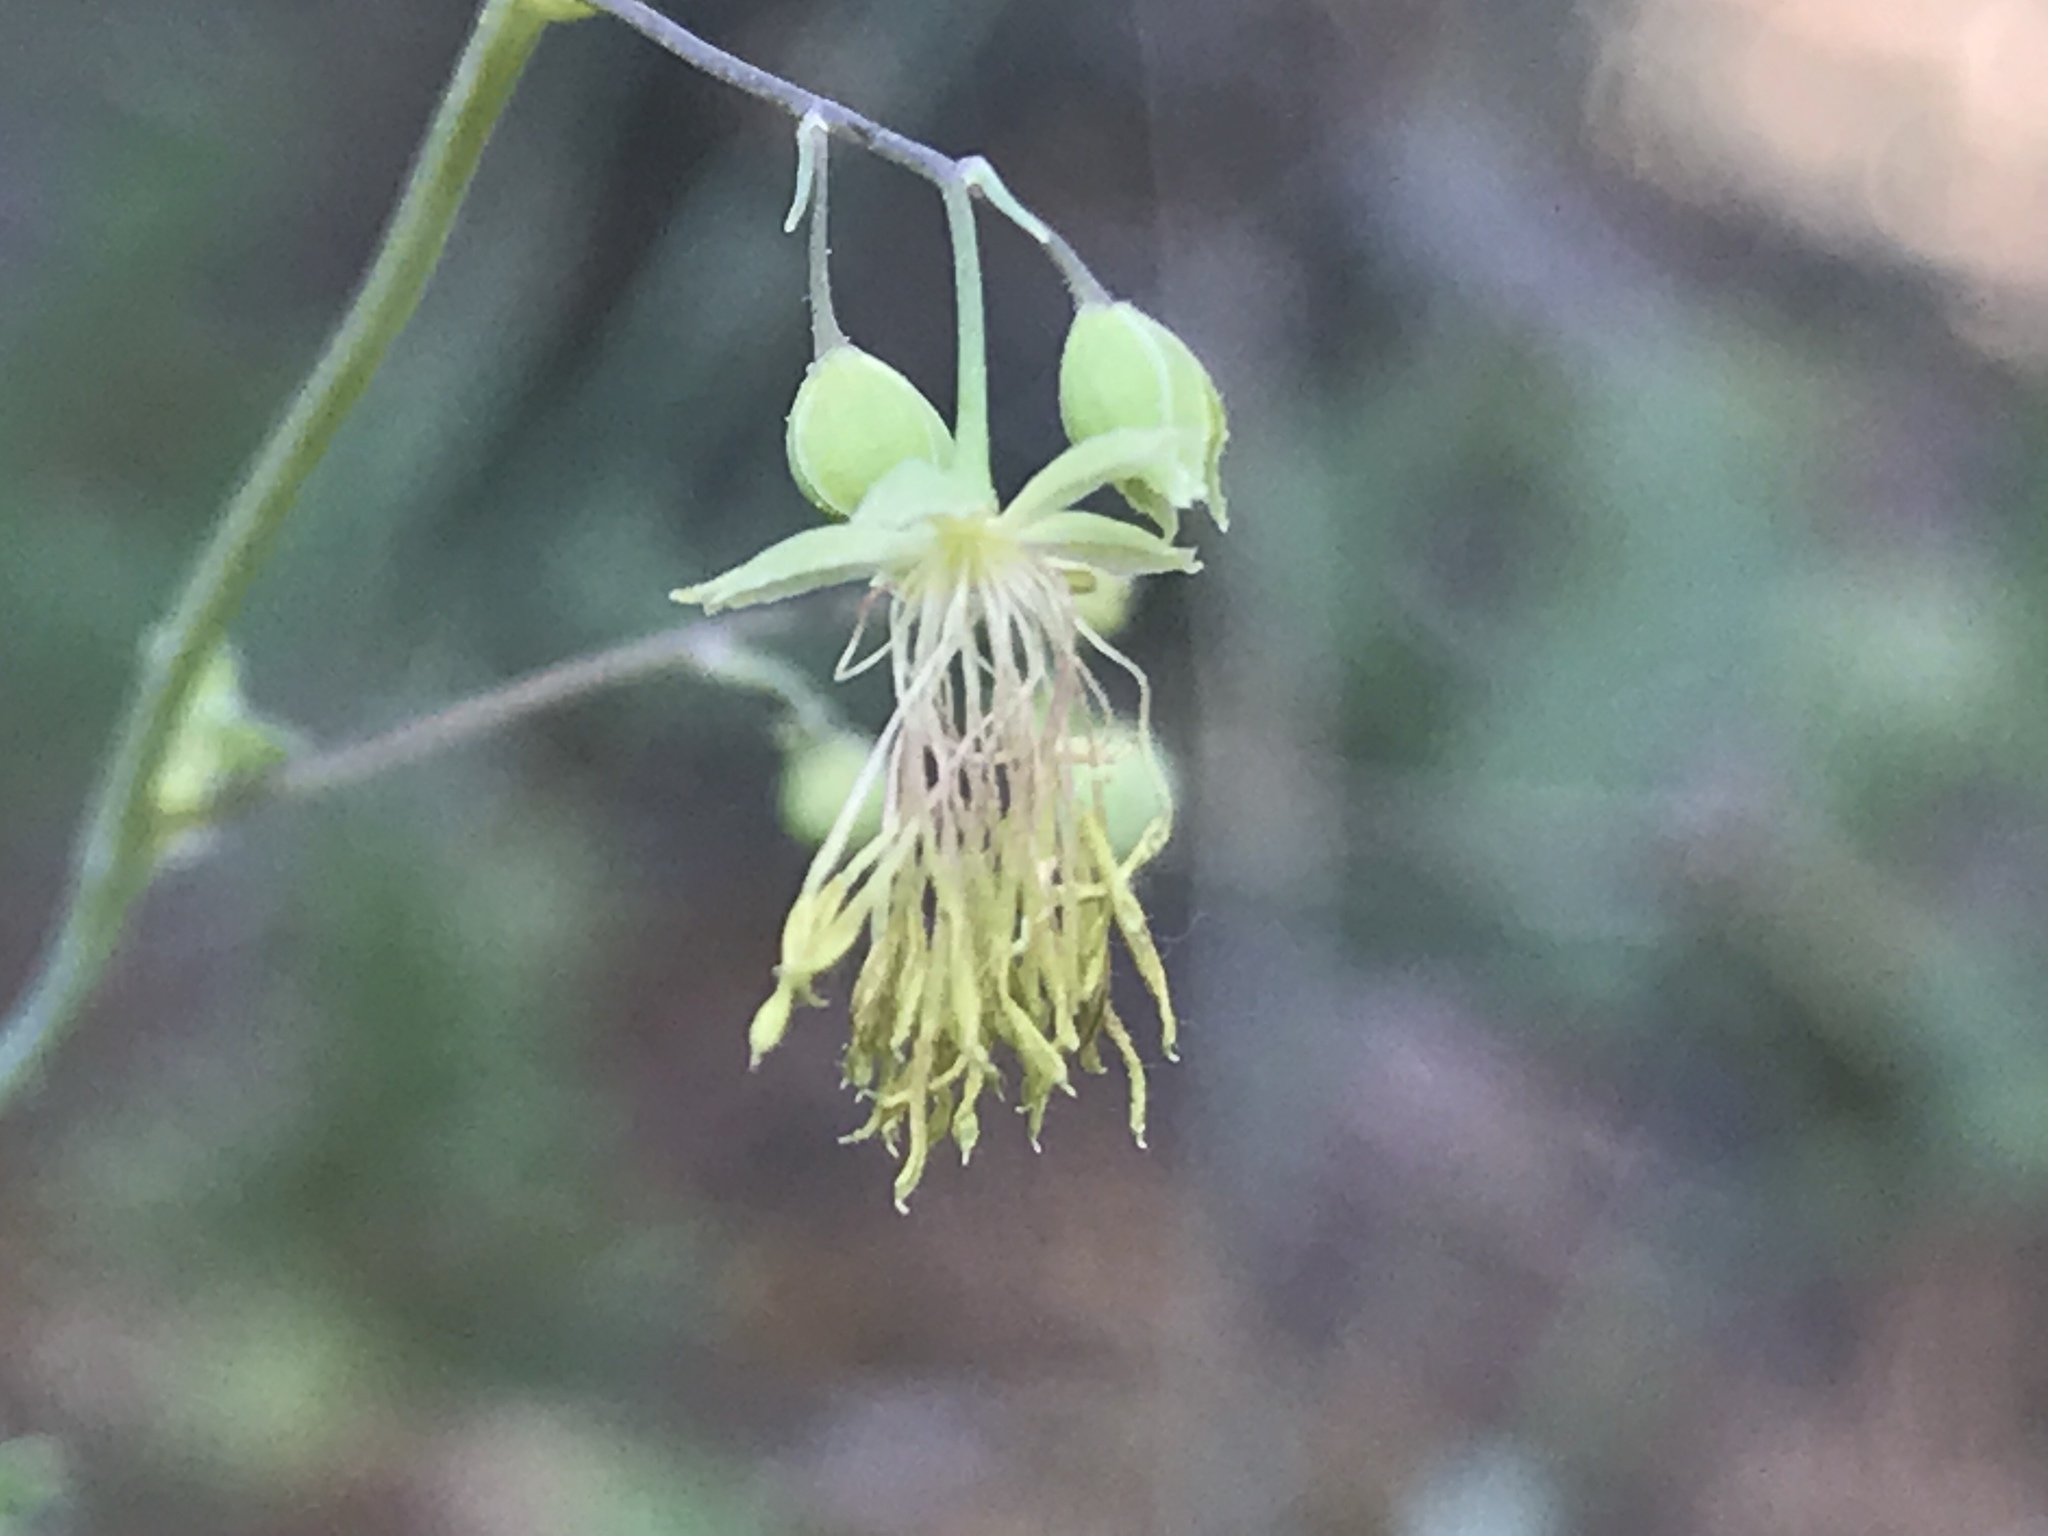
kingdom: Plantae
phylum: Tracheophyta
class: Magnoliopsida
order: Ranunculales
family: Ranunculaceae
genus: Thalictrum
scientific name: Thalictrum fendleri
